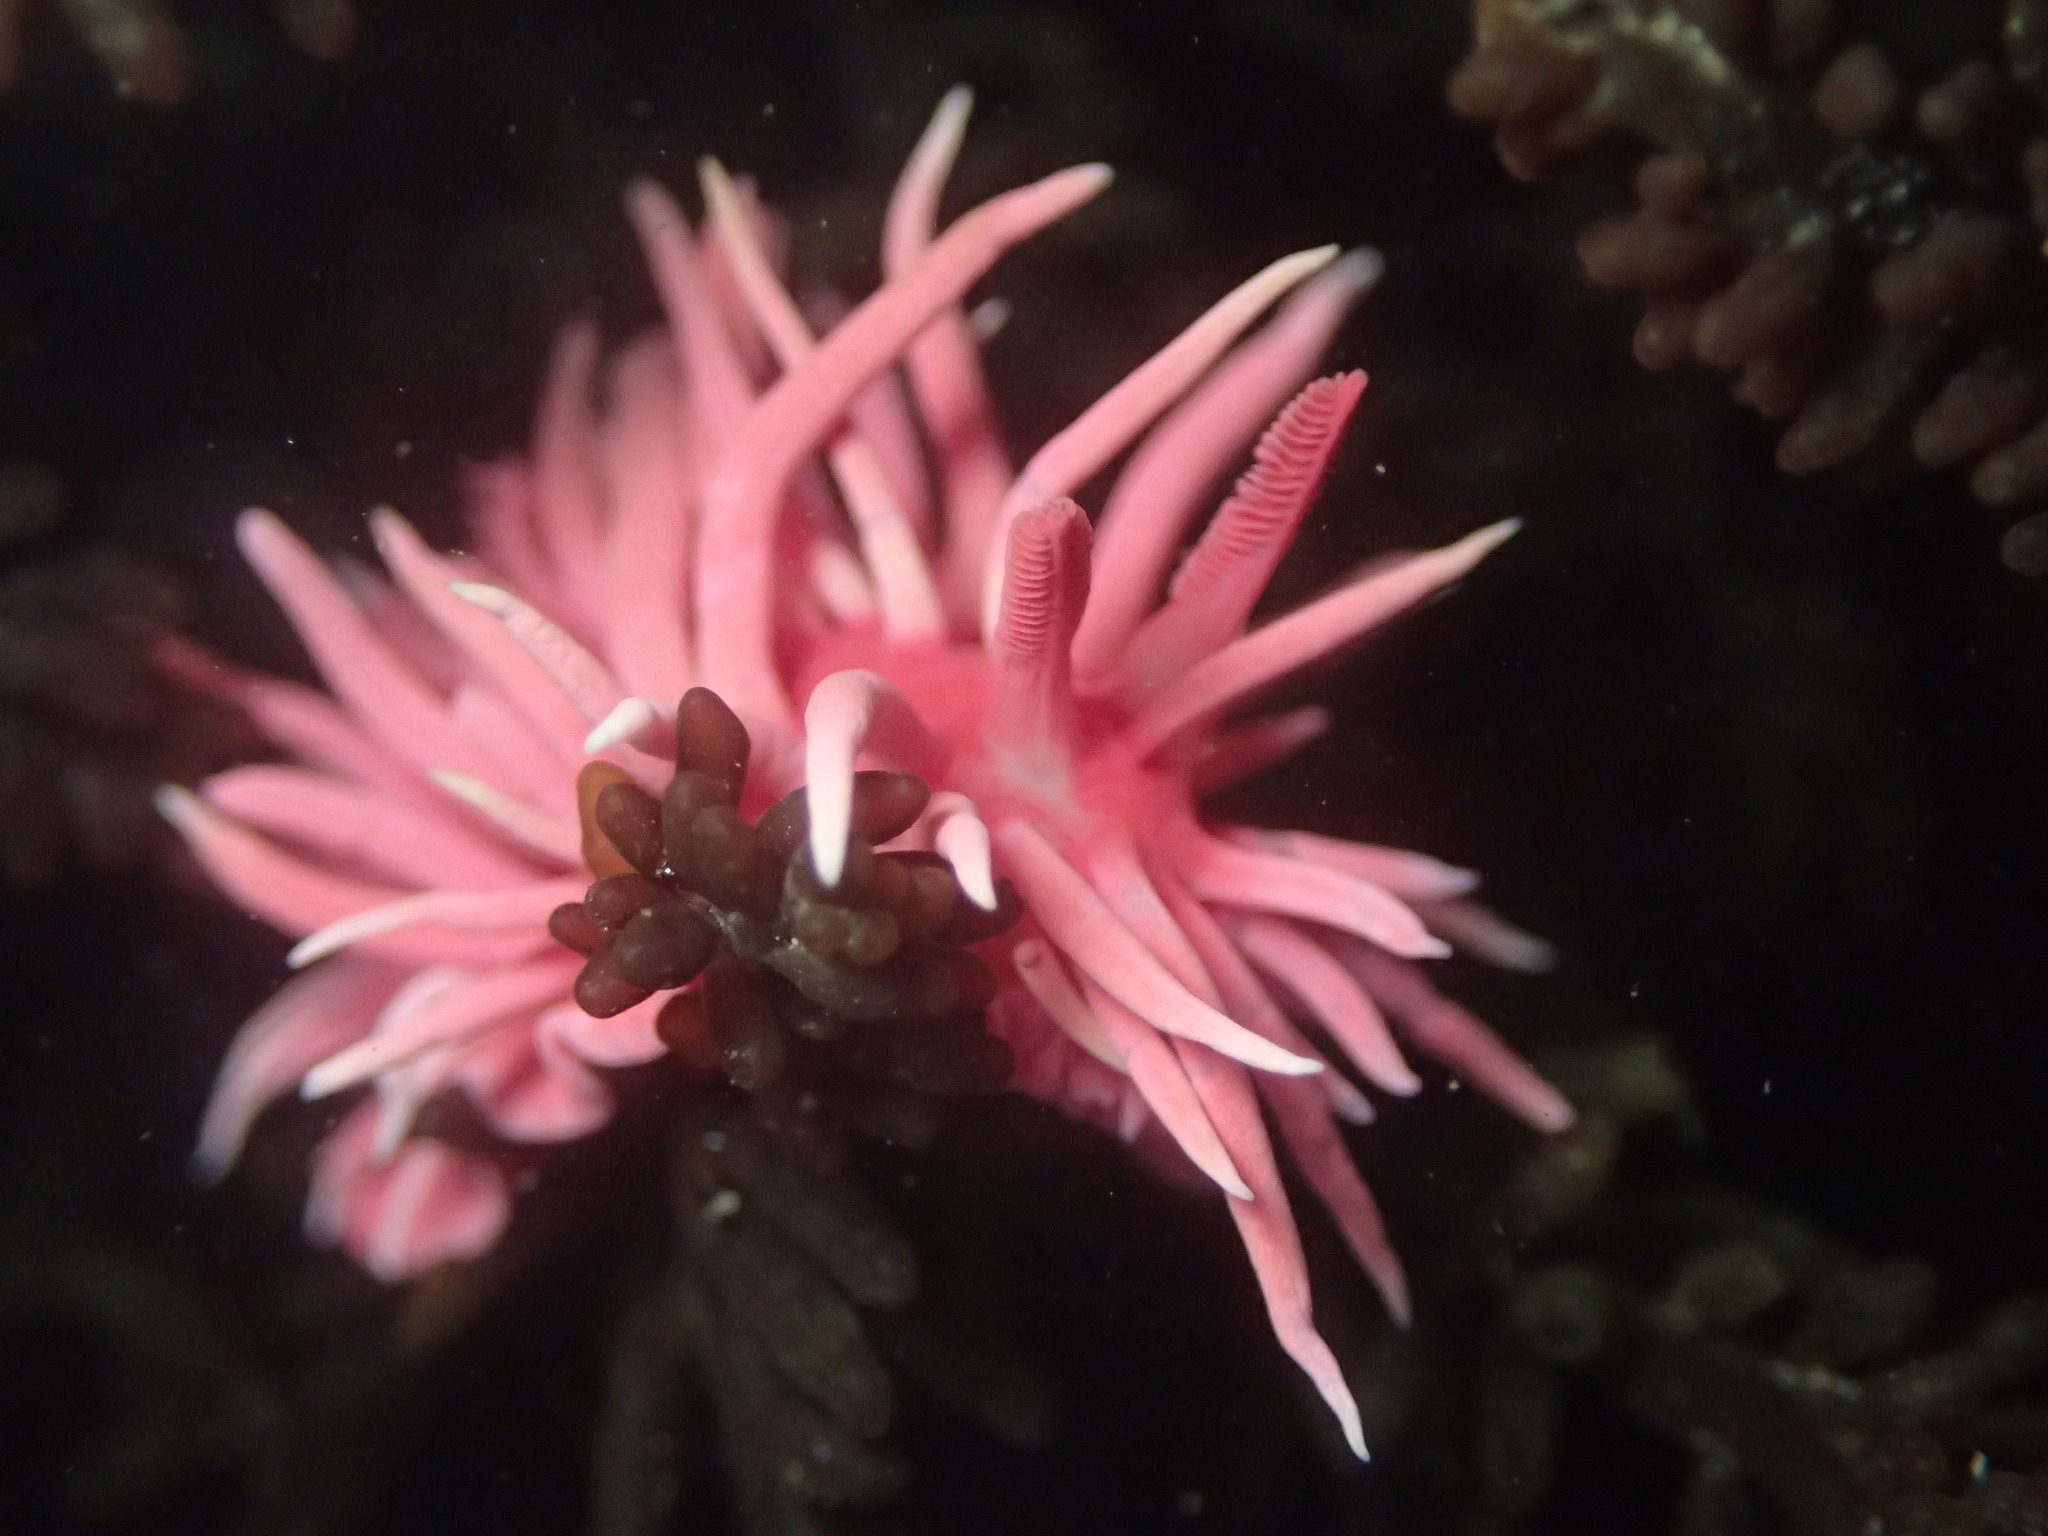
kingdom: Animalia
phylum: Mollusca
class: Gastropoda
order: Nudibranchia
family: Goniodorididae
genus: Okenia
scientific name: Okenia
